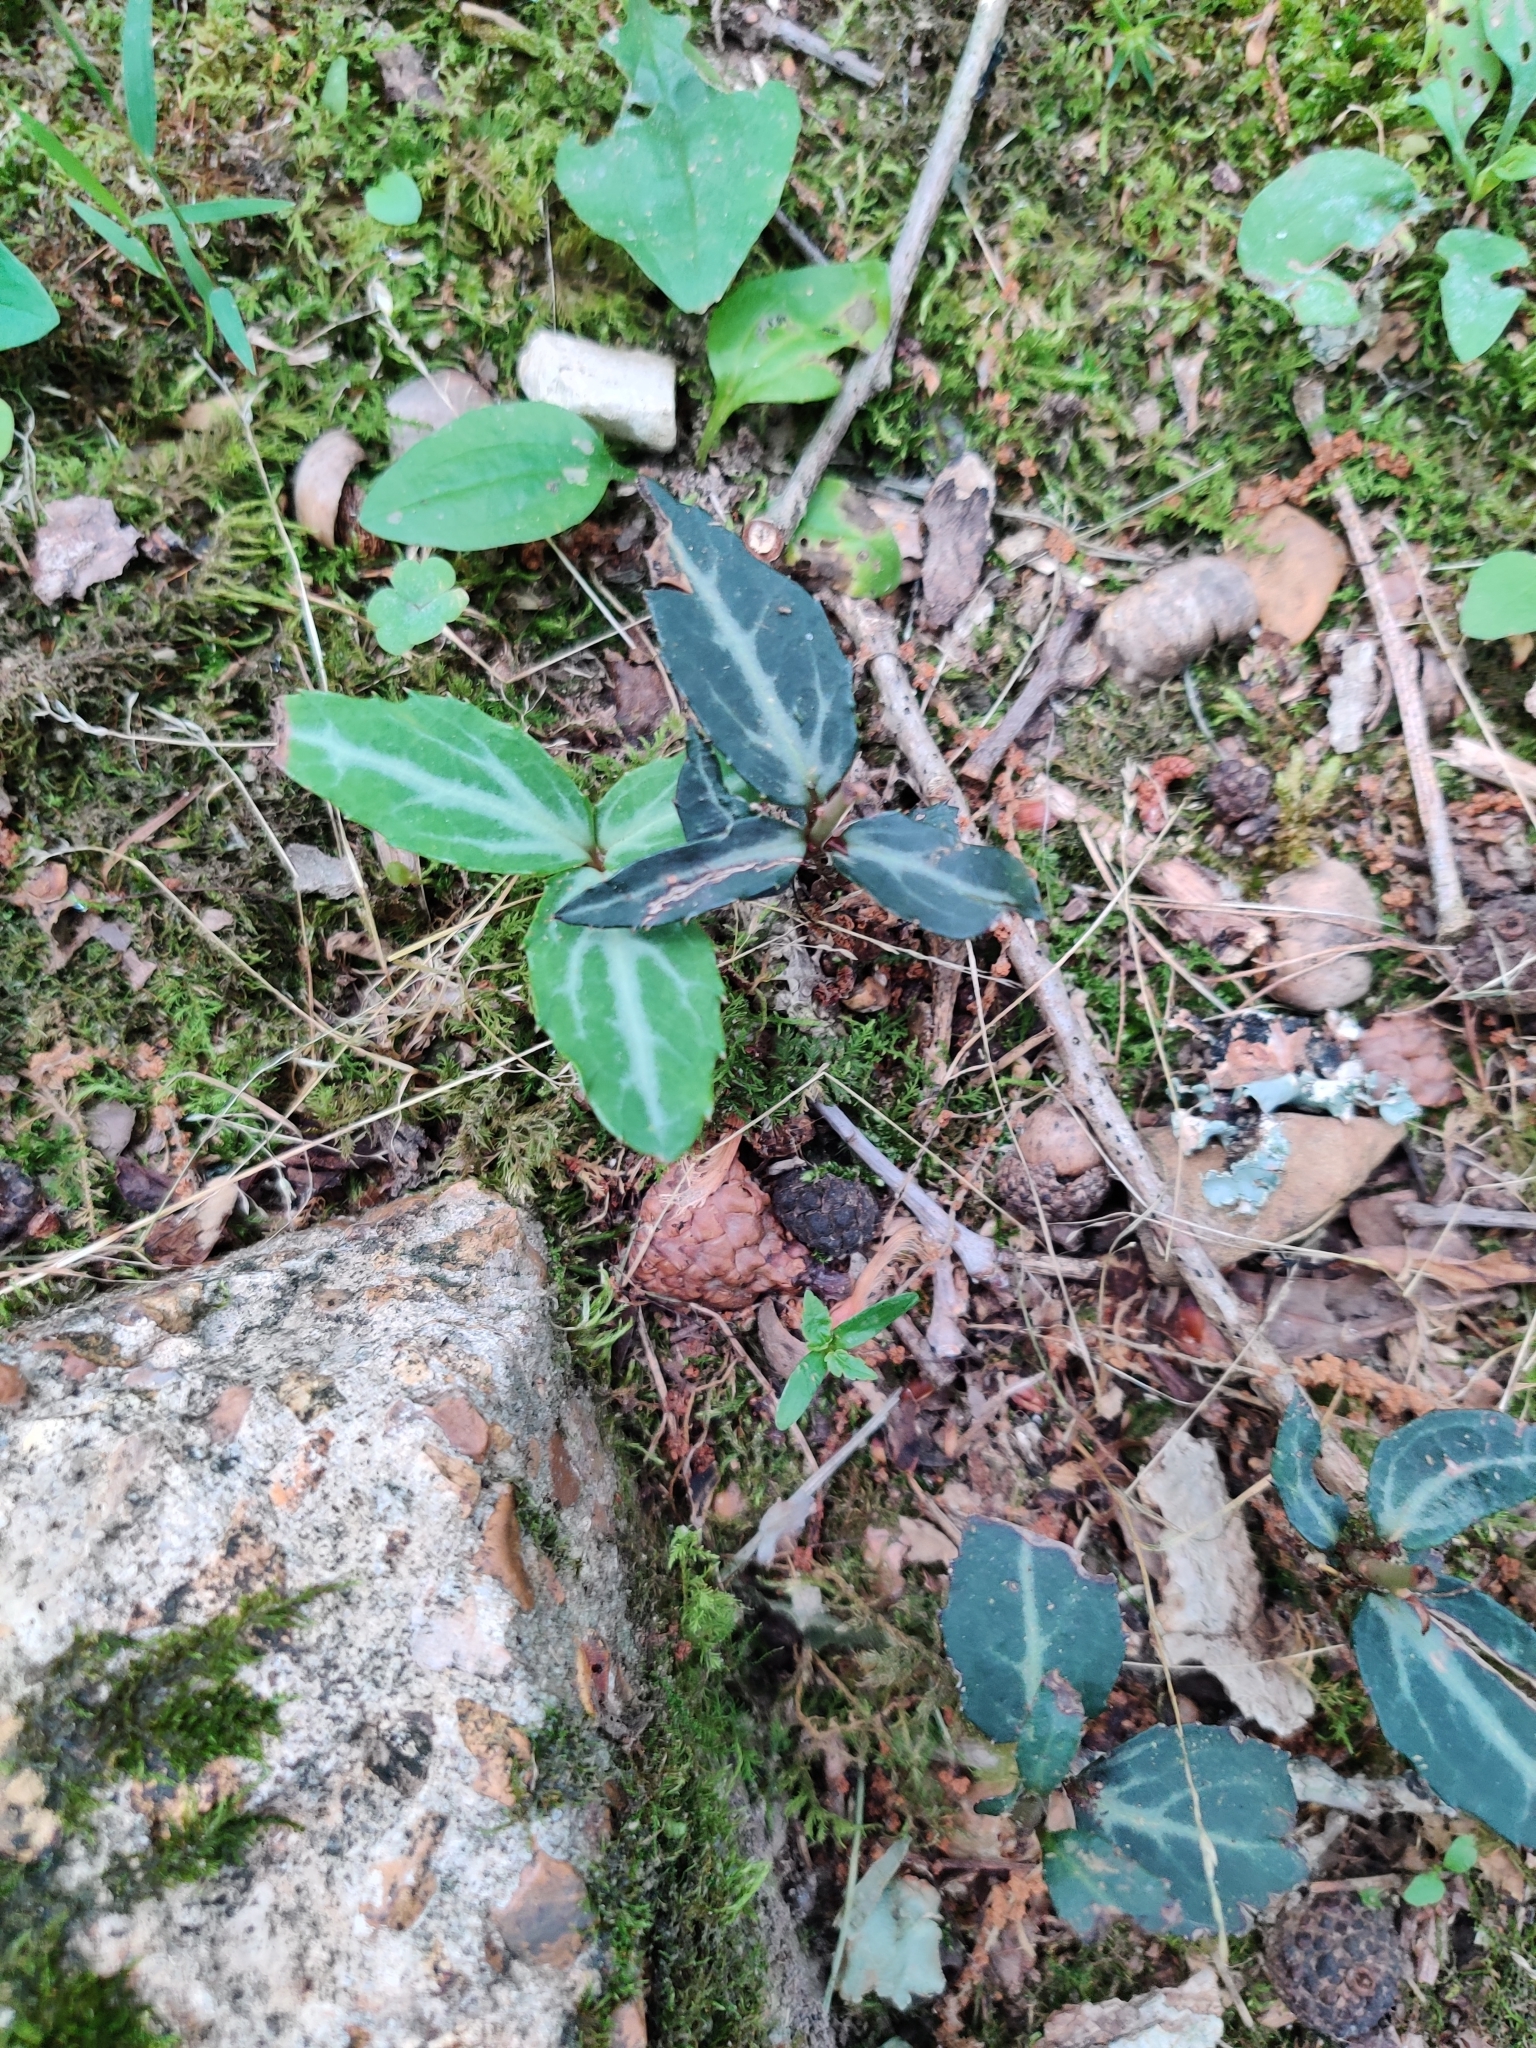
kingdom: Plantae
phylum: Tracheophyta
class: Magnoliopsida
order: Ericales
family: Ericaceae
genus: Chimaphila
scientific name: Chimaphila maculata
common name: Spotted pipsissewa
